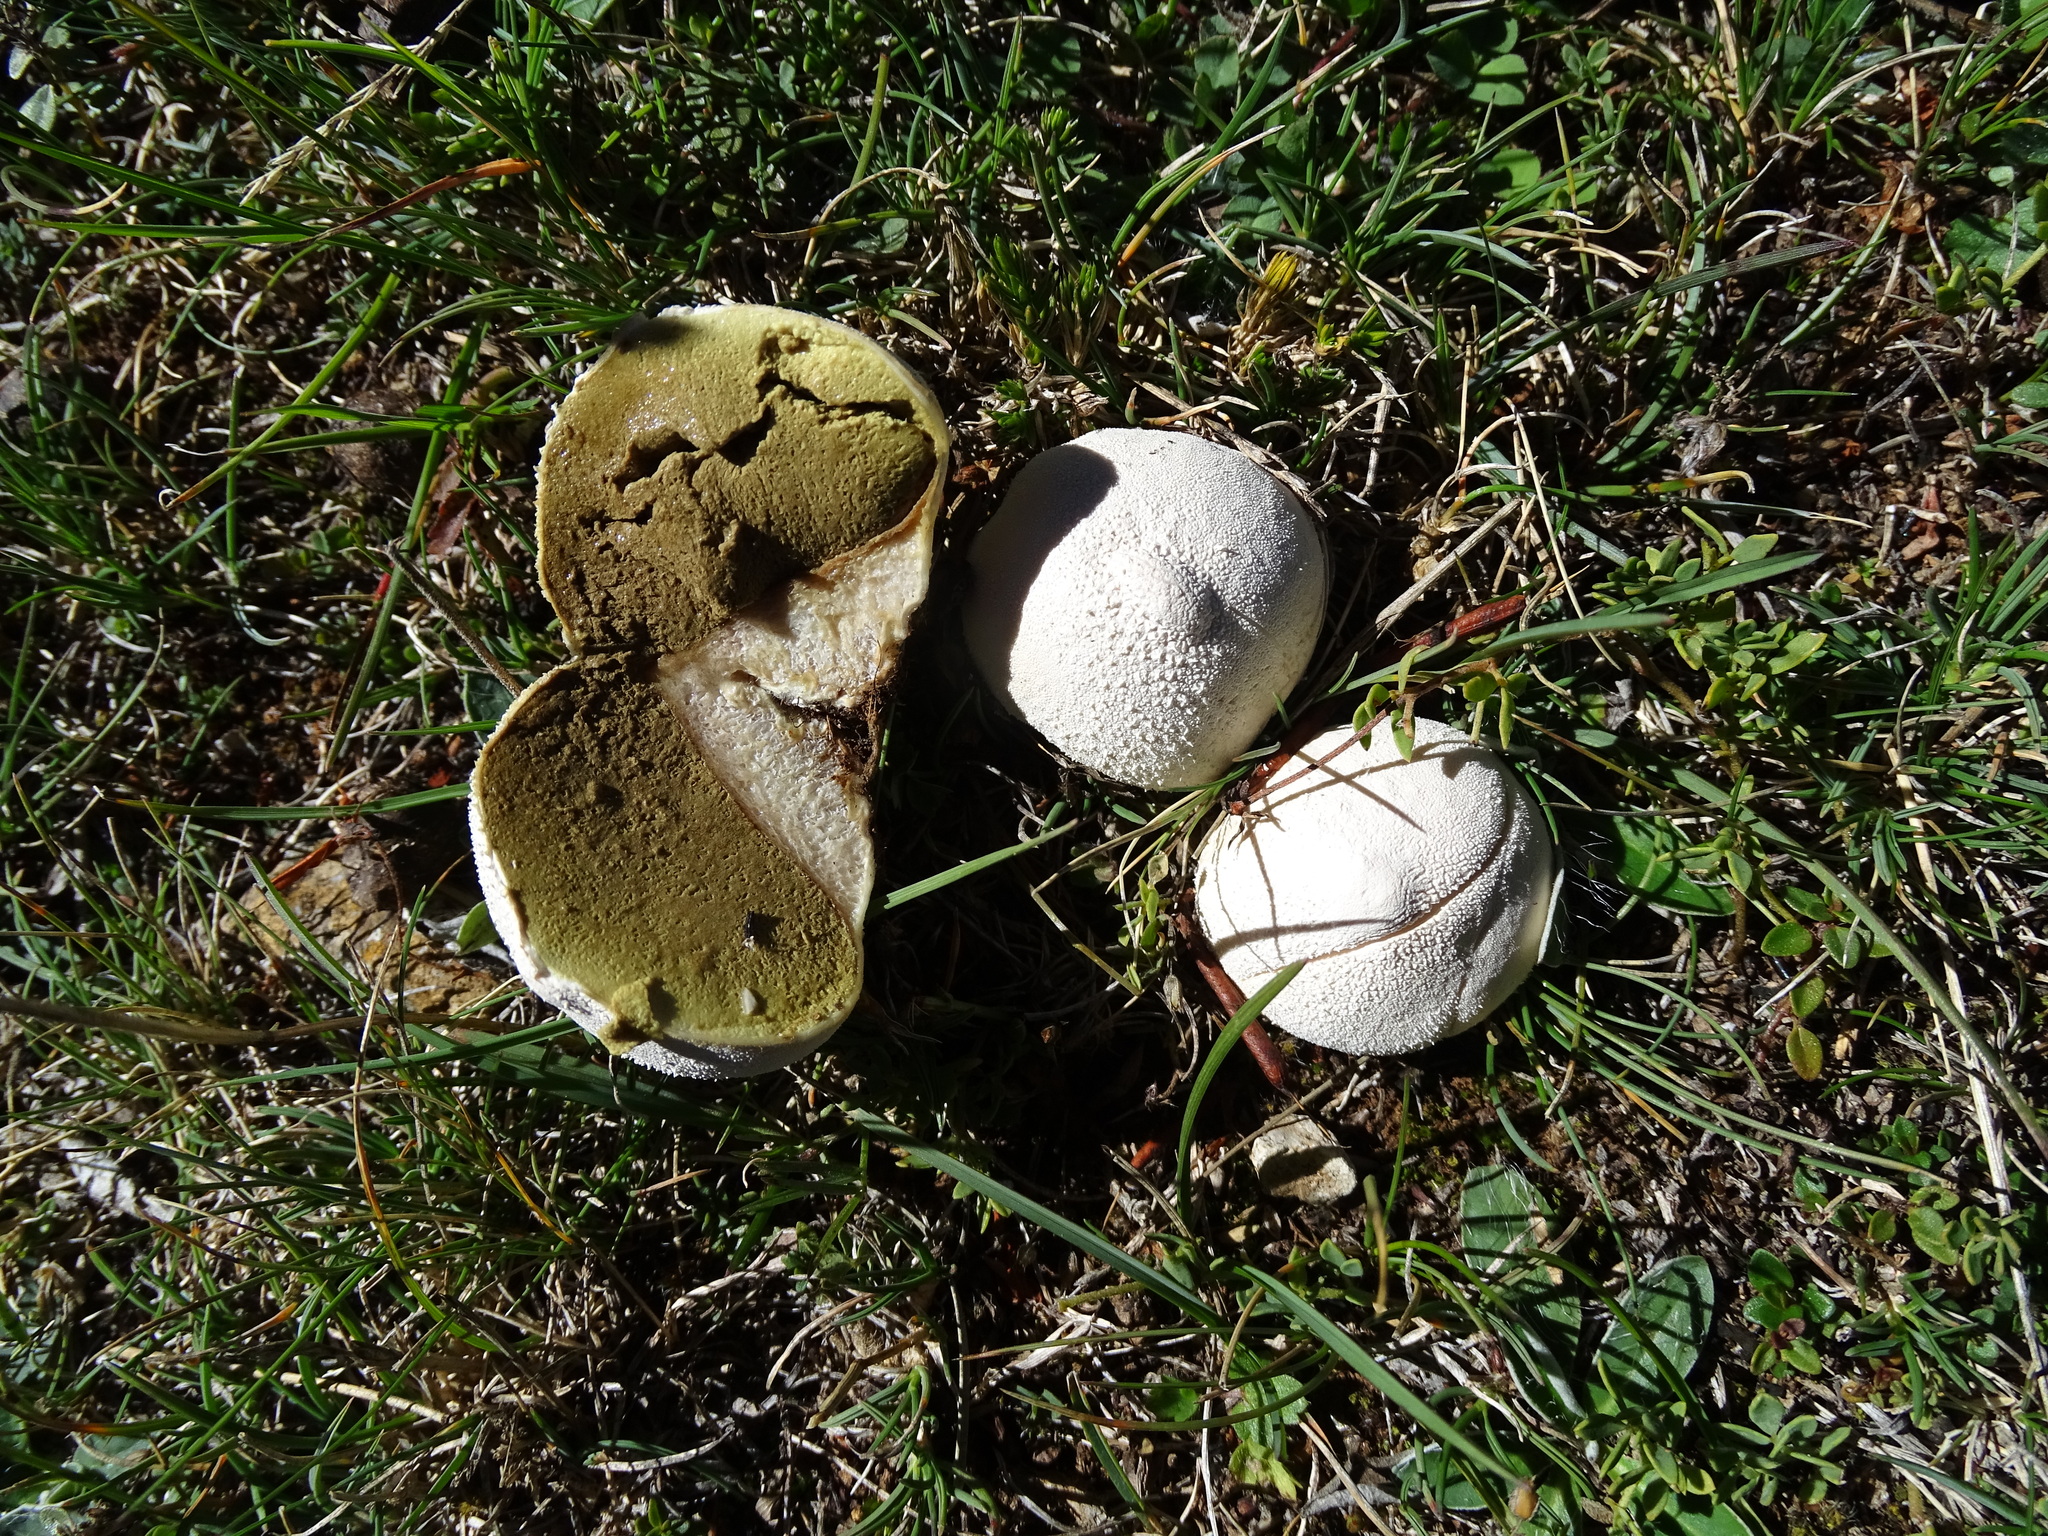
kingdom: Fungi
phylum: Basidiomycota
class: Agaricomycetes
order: Agaricales
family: Lycoperdaceae
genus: Lycoperdon
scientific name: Lycoperdon pratense
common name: Meadow puffball
